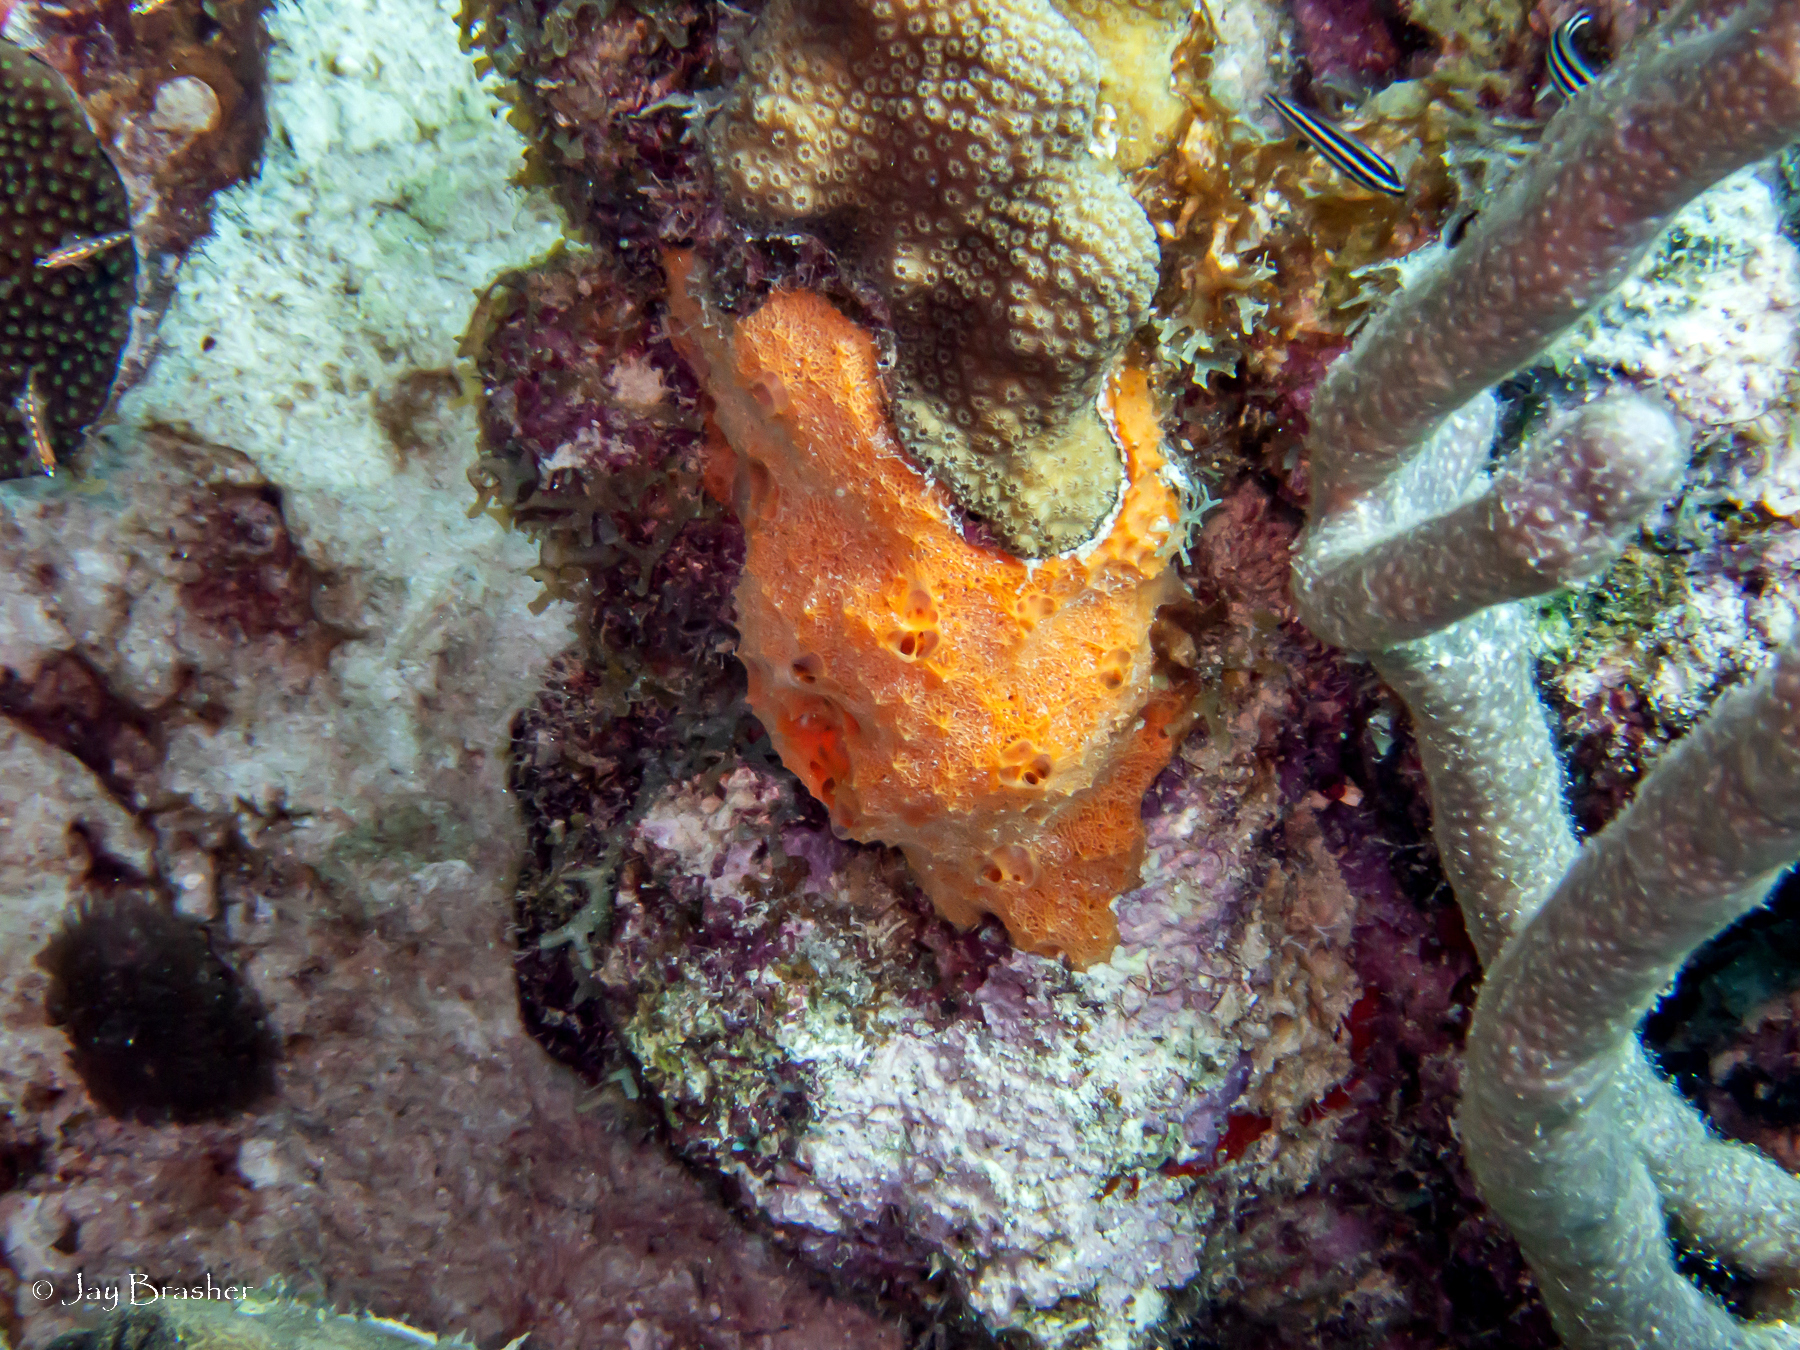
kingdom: Animalia
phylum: Porifera
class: Demospongiae
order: Scopalinida
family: Scopalinidae
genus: Scopalina
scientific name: Scopalina ruetzleri
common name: Orange lumpy encrusting sponge
